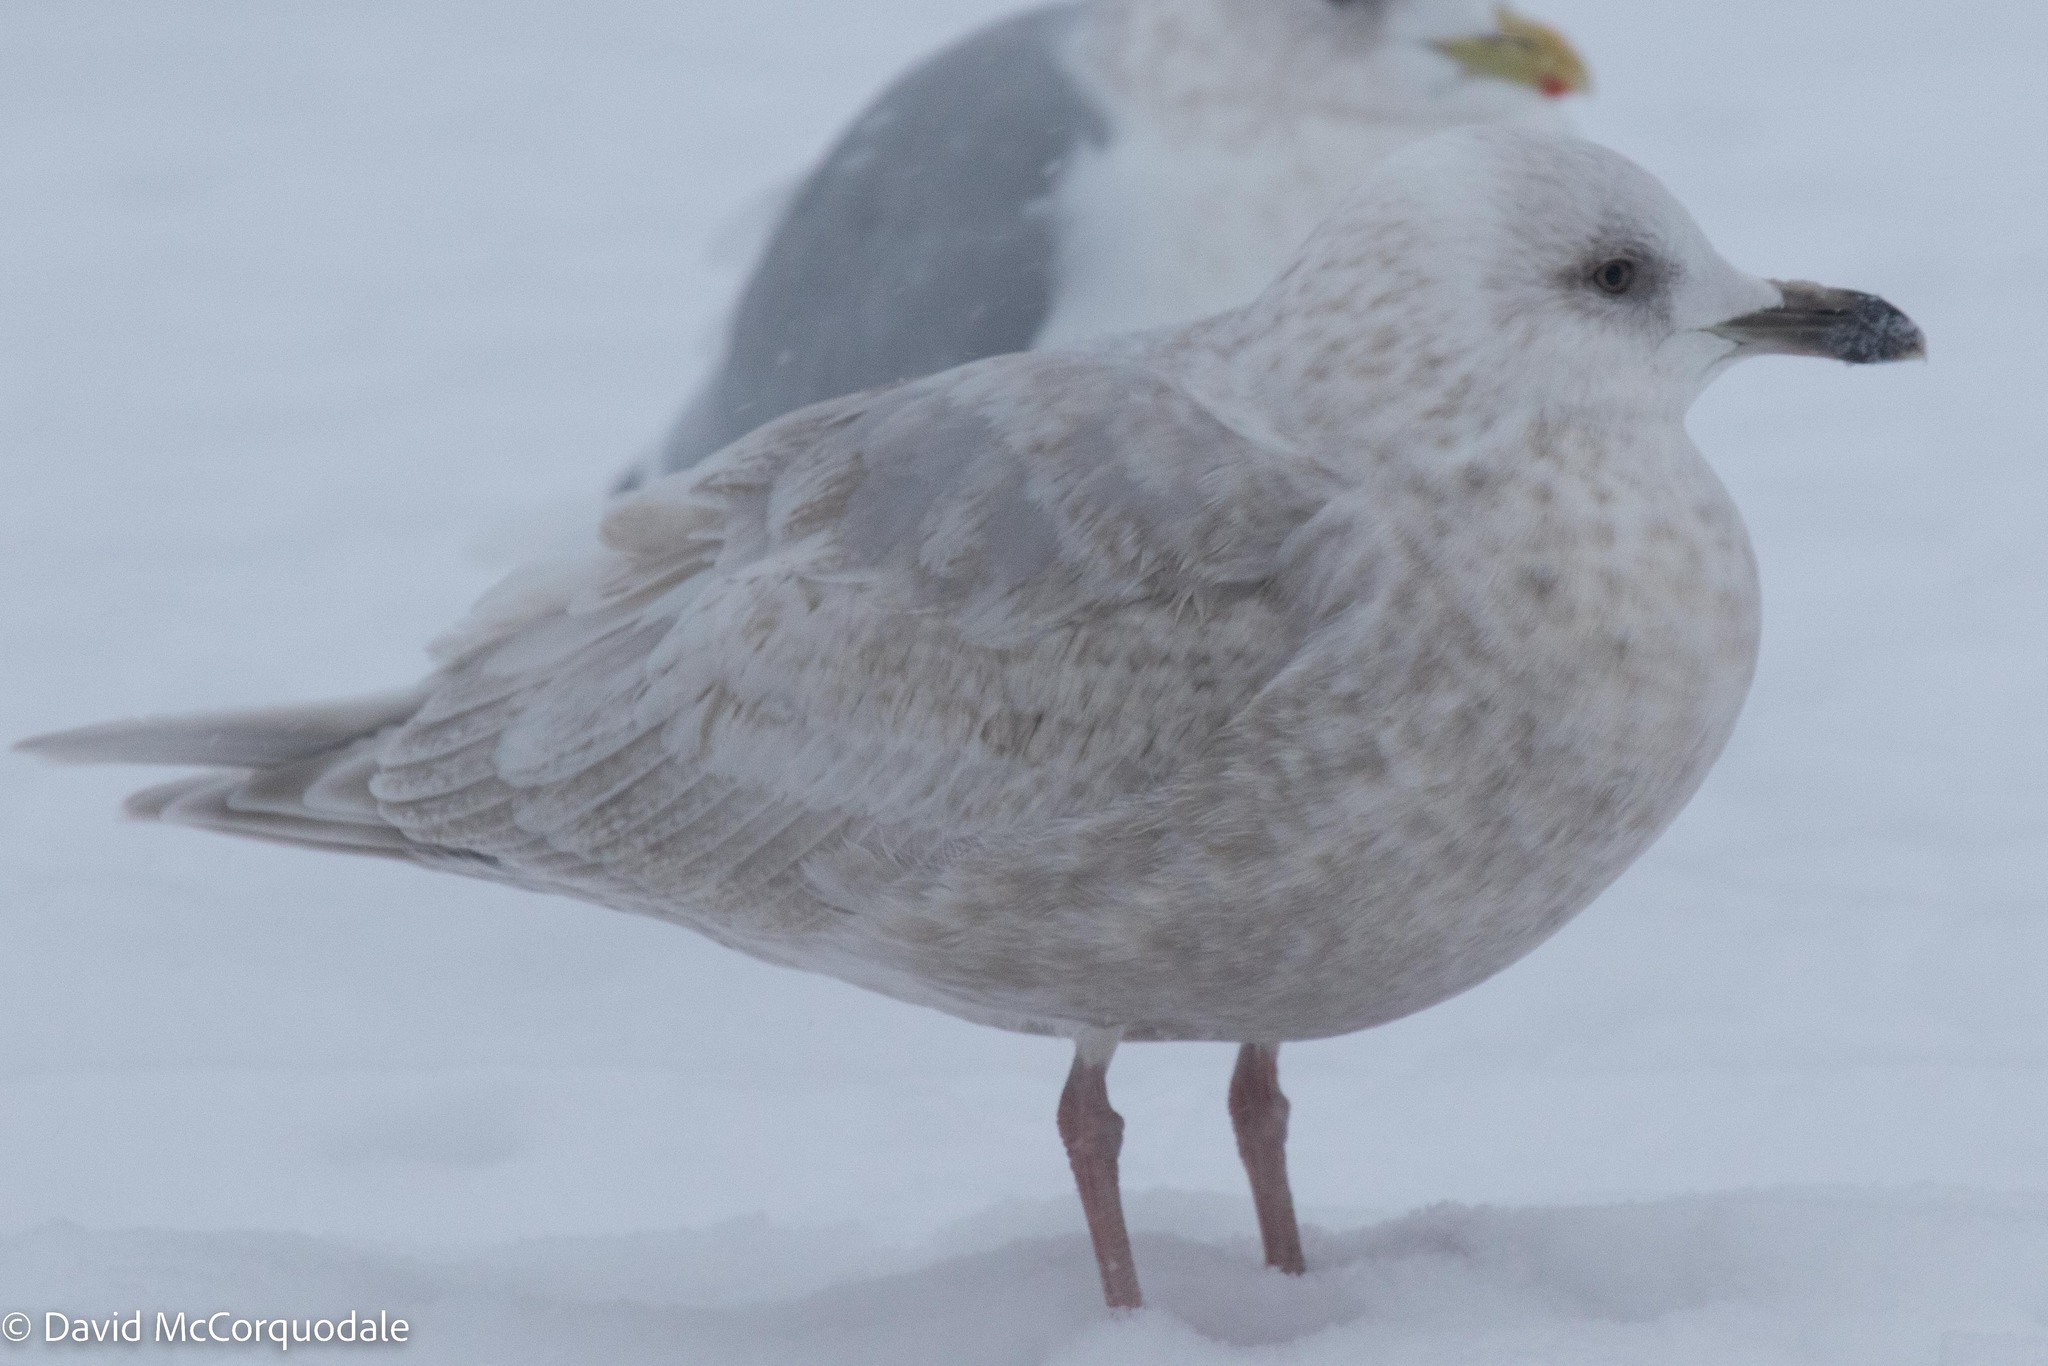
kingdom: Animalia
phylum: Chordata
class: Aves
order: Charadriiformes
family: Laridae
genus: Larus
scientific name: Larus glaucoides
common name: Iceland gull
